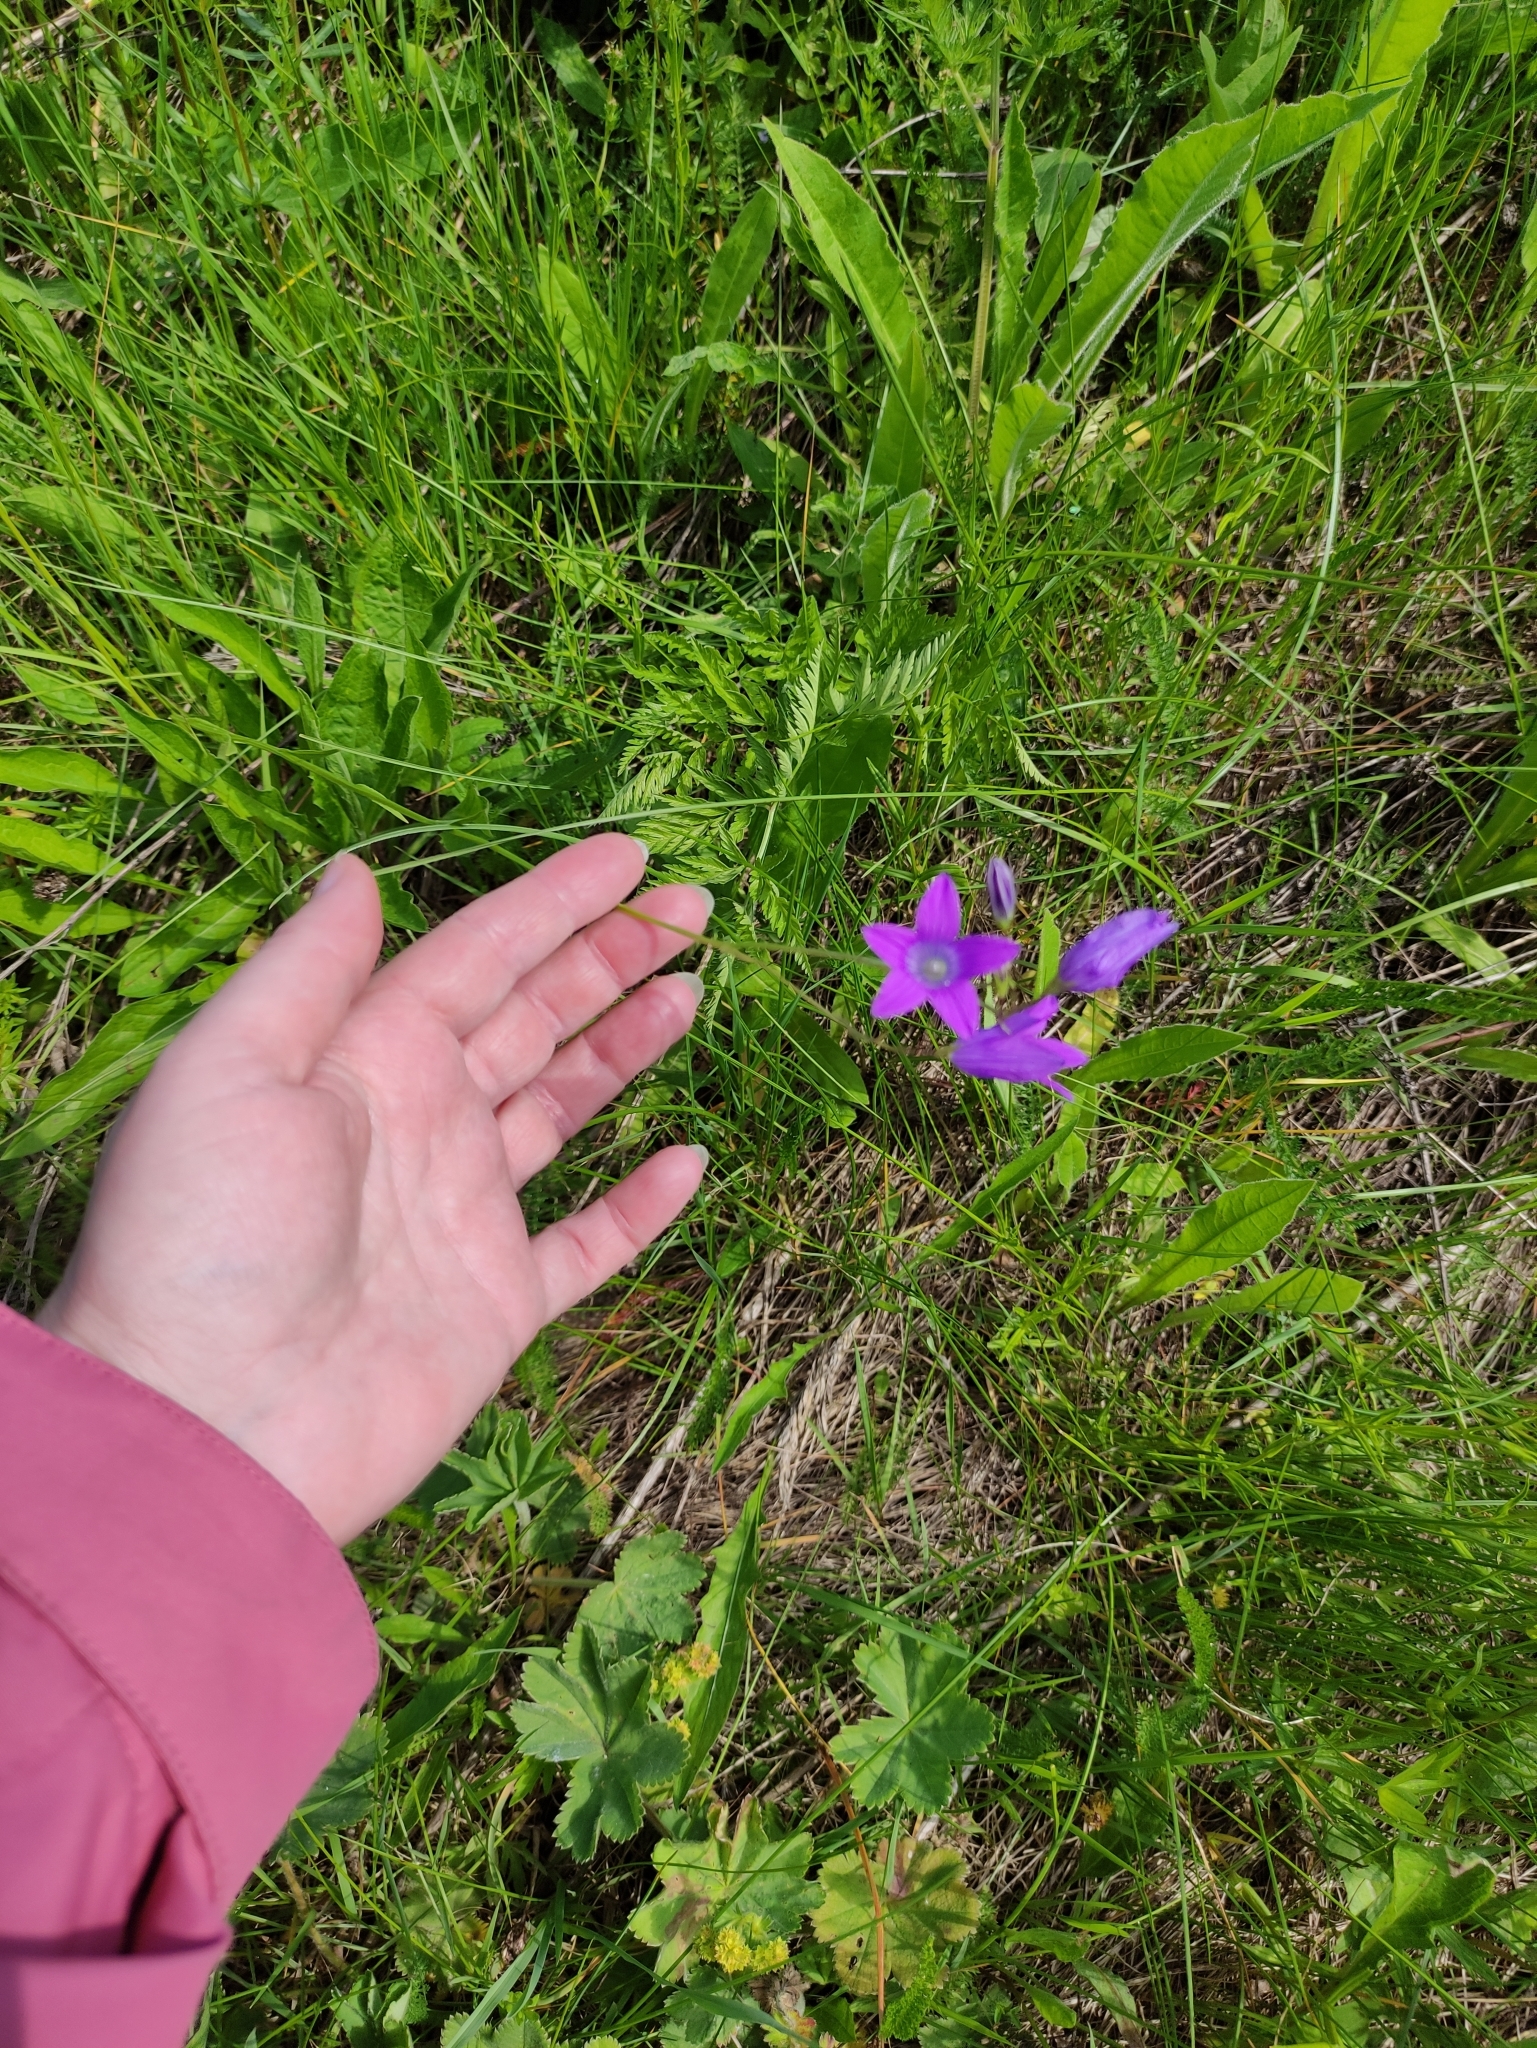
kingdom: Plantae
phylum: Tracheophyta
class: Magnoliopsida
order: Asterales
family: Campanulaceae
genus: Campanula
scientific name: Campanula patula
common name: Spreading bellflower
